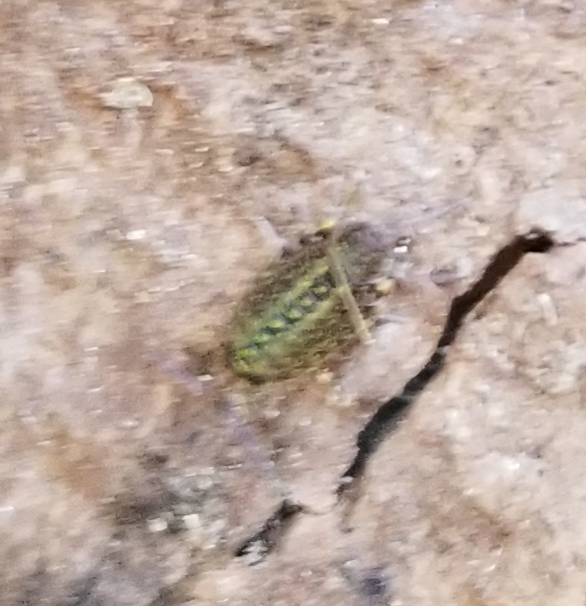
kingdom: Animalia
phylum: Arthropoda
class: Malacostraca
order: Isopoda
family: Philosciidae
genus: Philoscia
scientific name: Philoscia muscorum
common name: Common striped woodlouse
